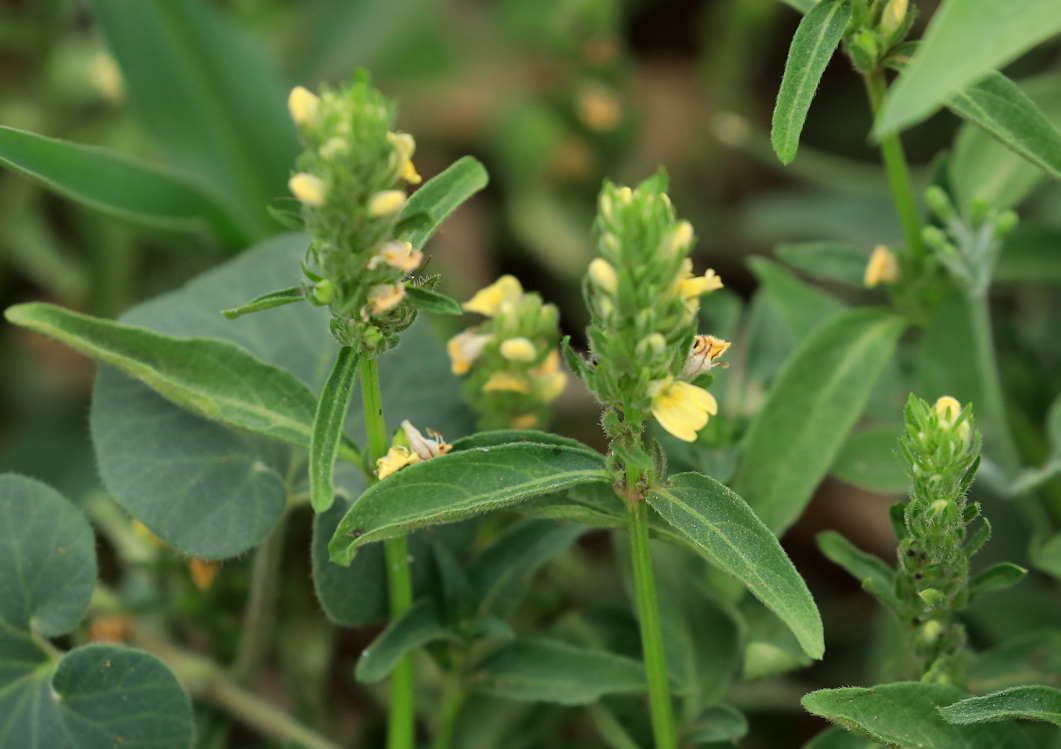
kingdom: Plantae
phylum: Tracheophyta
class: Magnoliopsida
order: Lamiales
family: Acanthaceae
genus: Justicia
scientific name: Justicia flava
